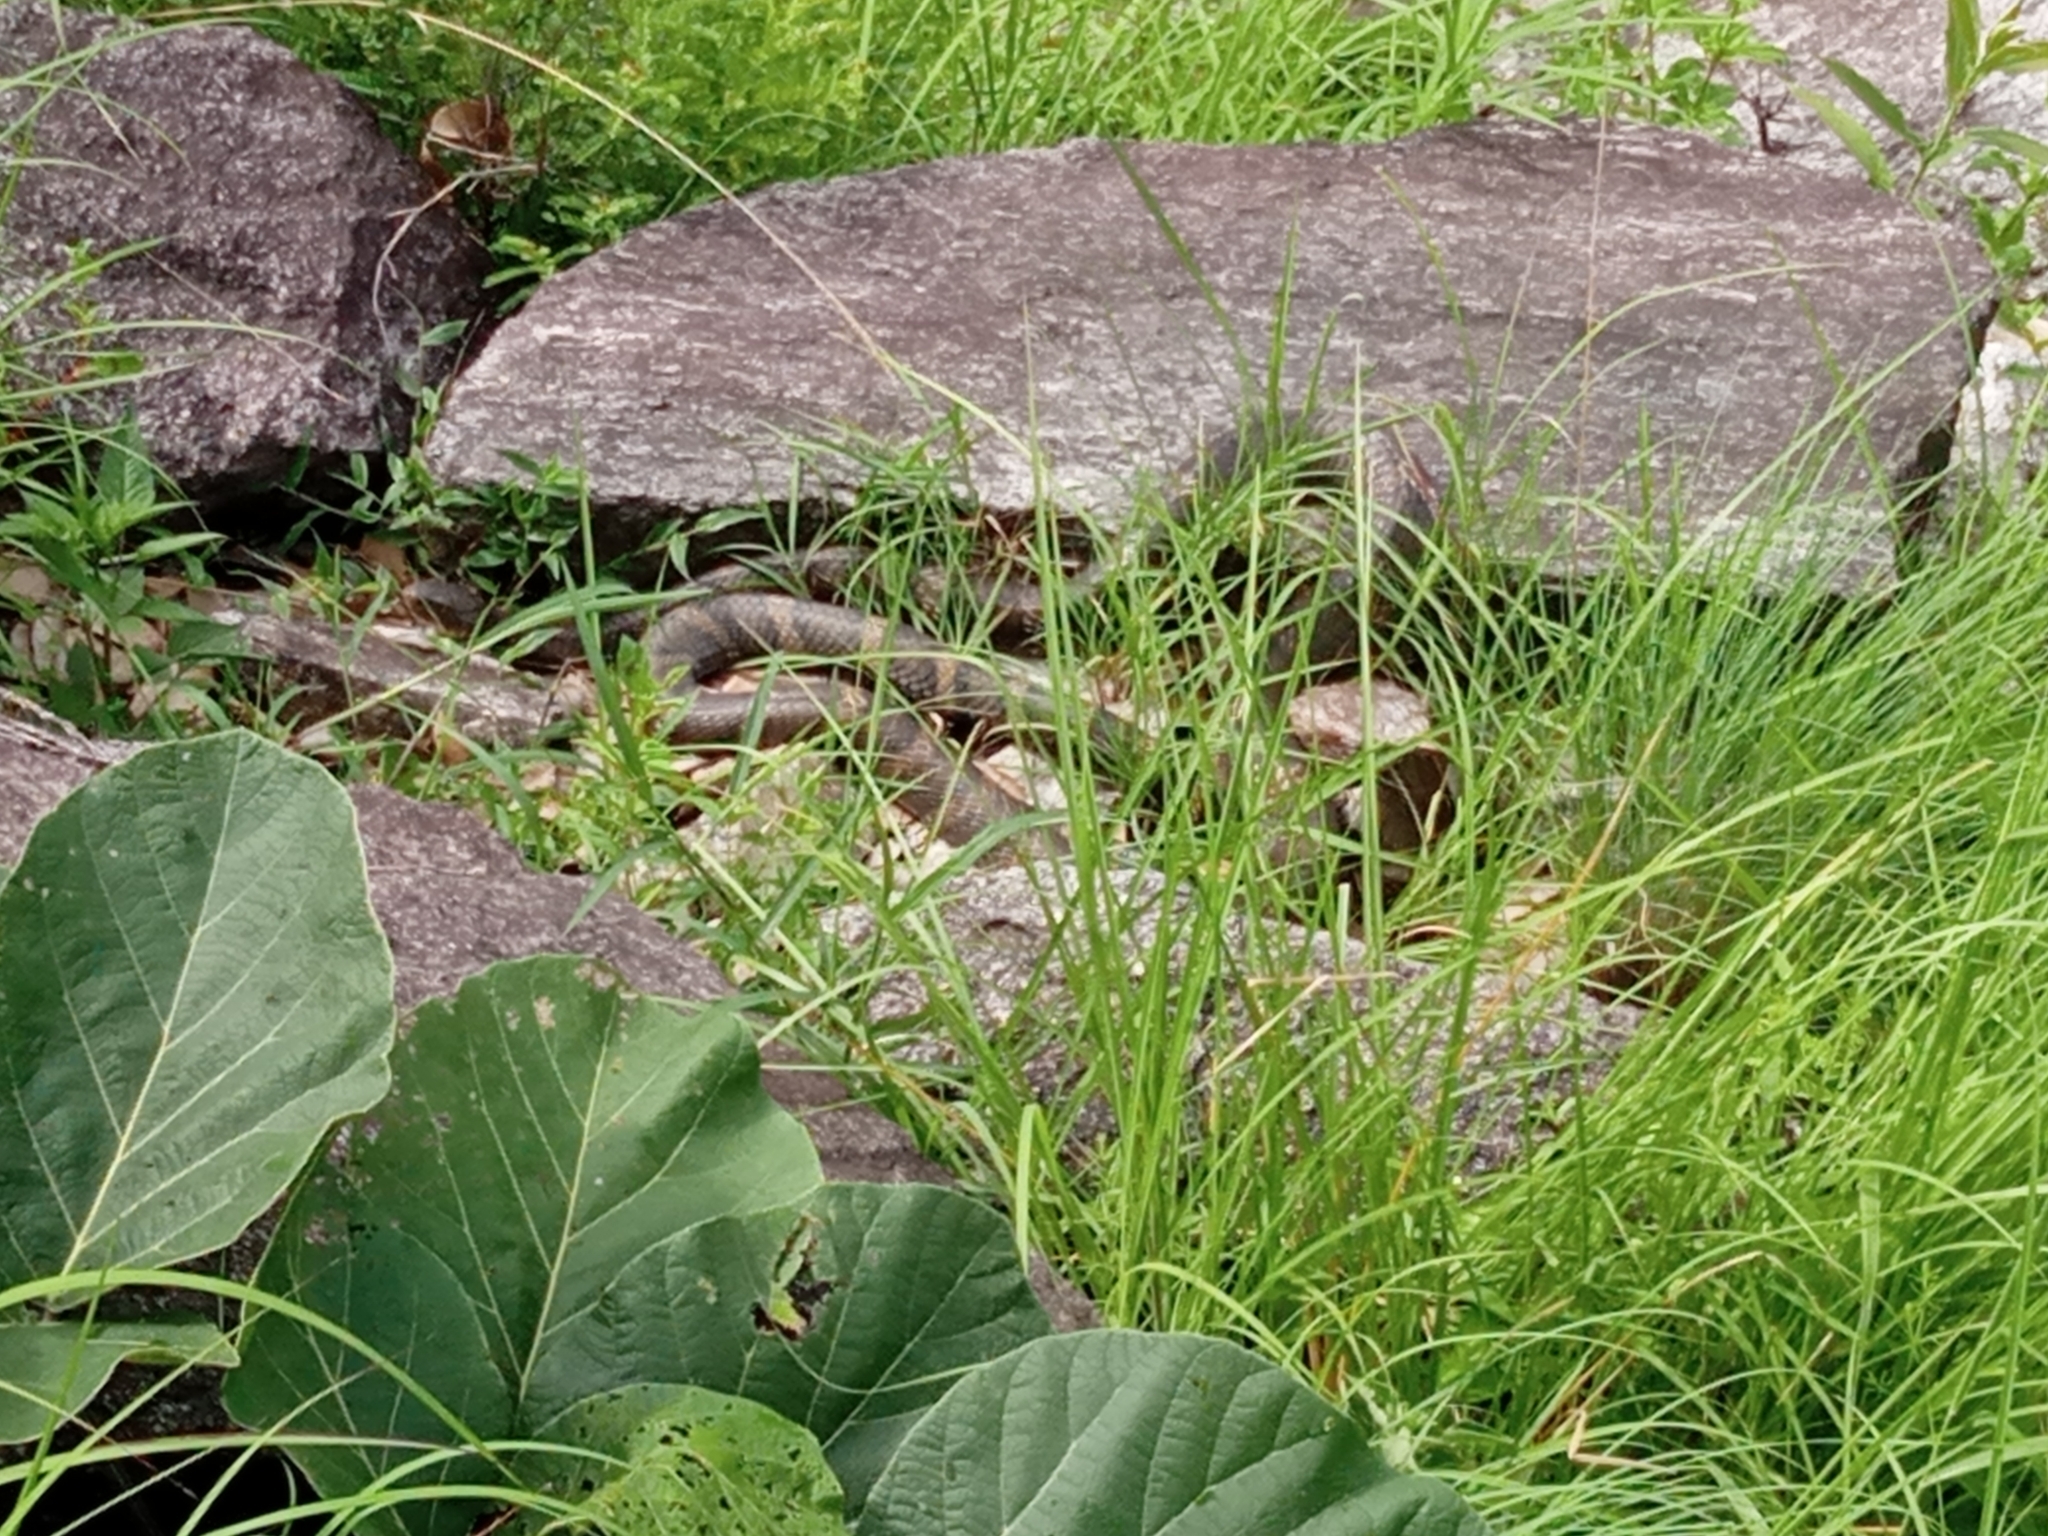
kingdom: Animalia
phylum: Chordata
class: Squamata
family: Elapidae
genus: Ophiophagus
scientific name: Ophiophagus hannah
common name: Hamadryad
